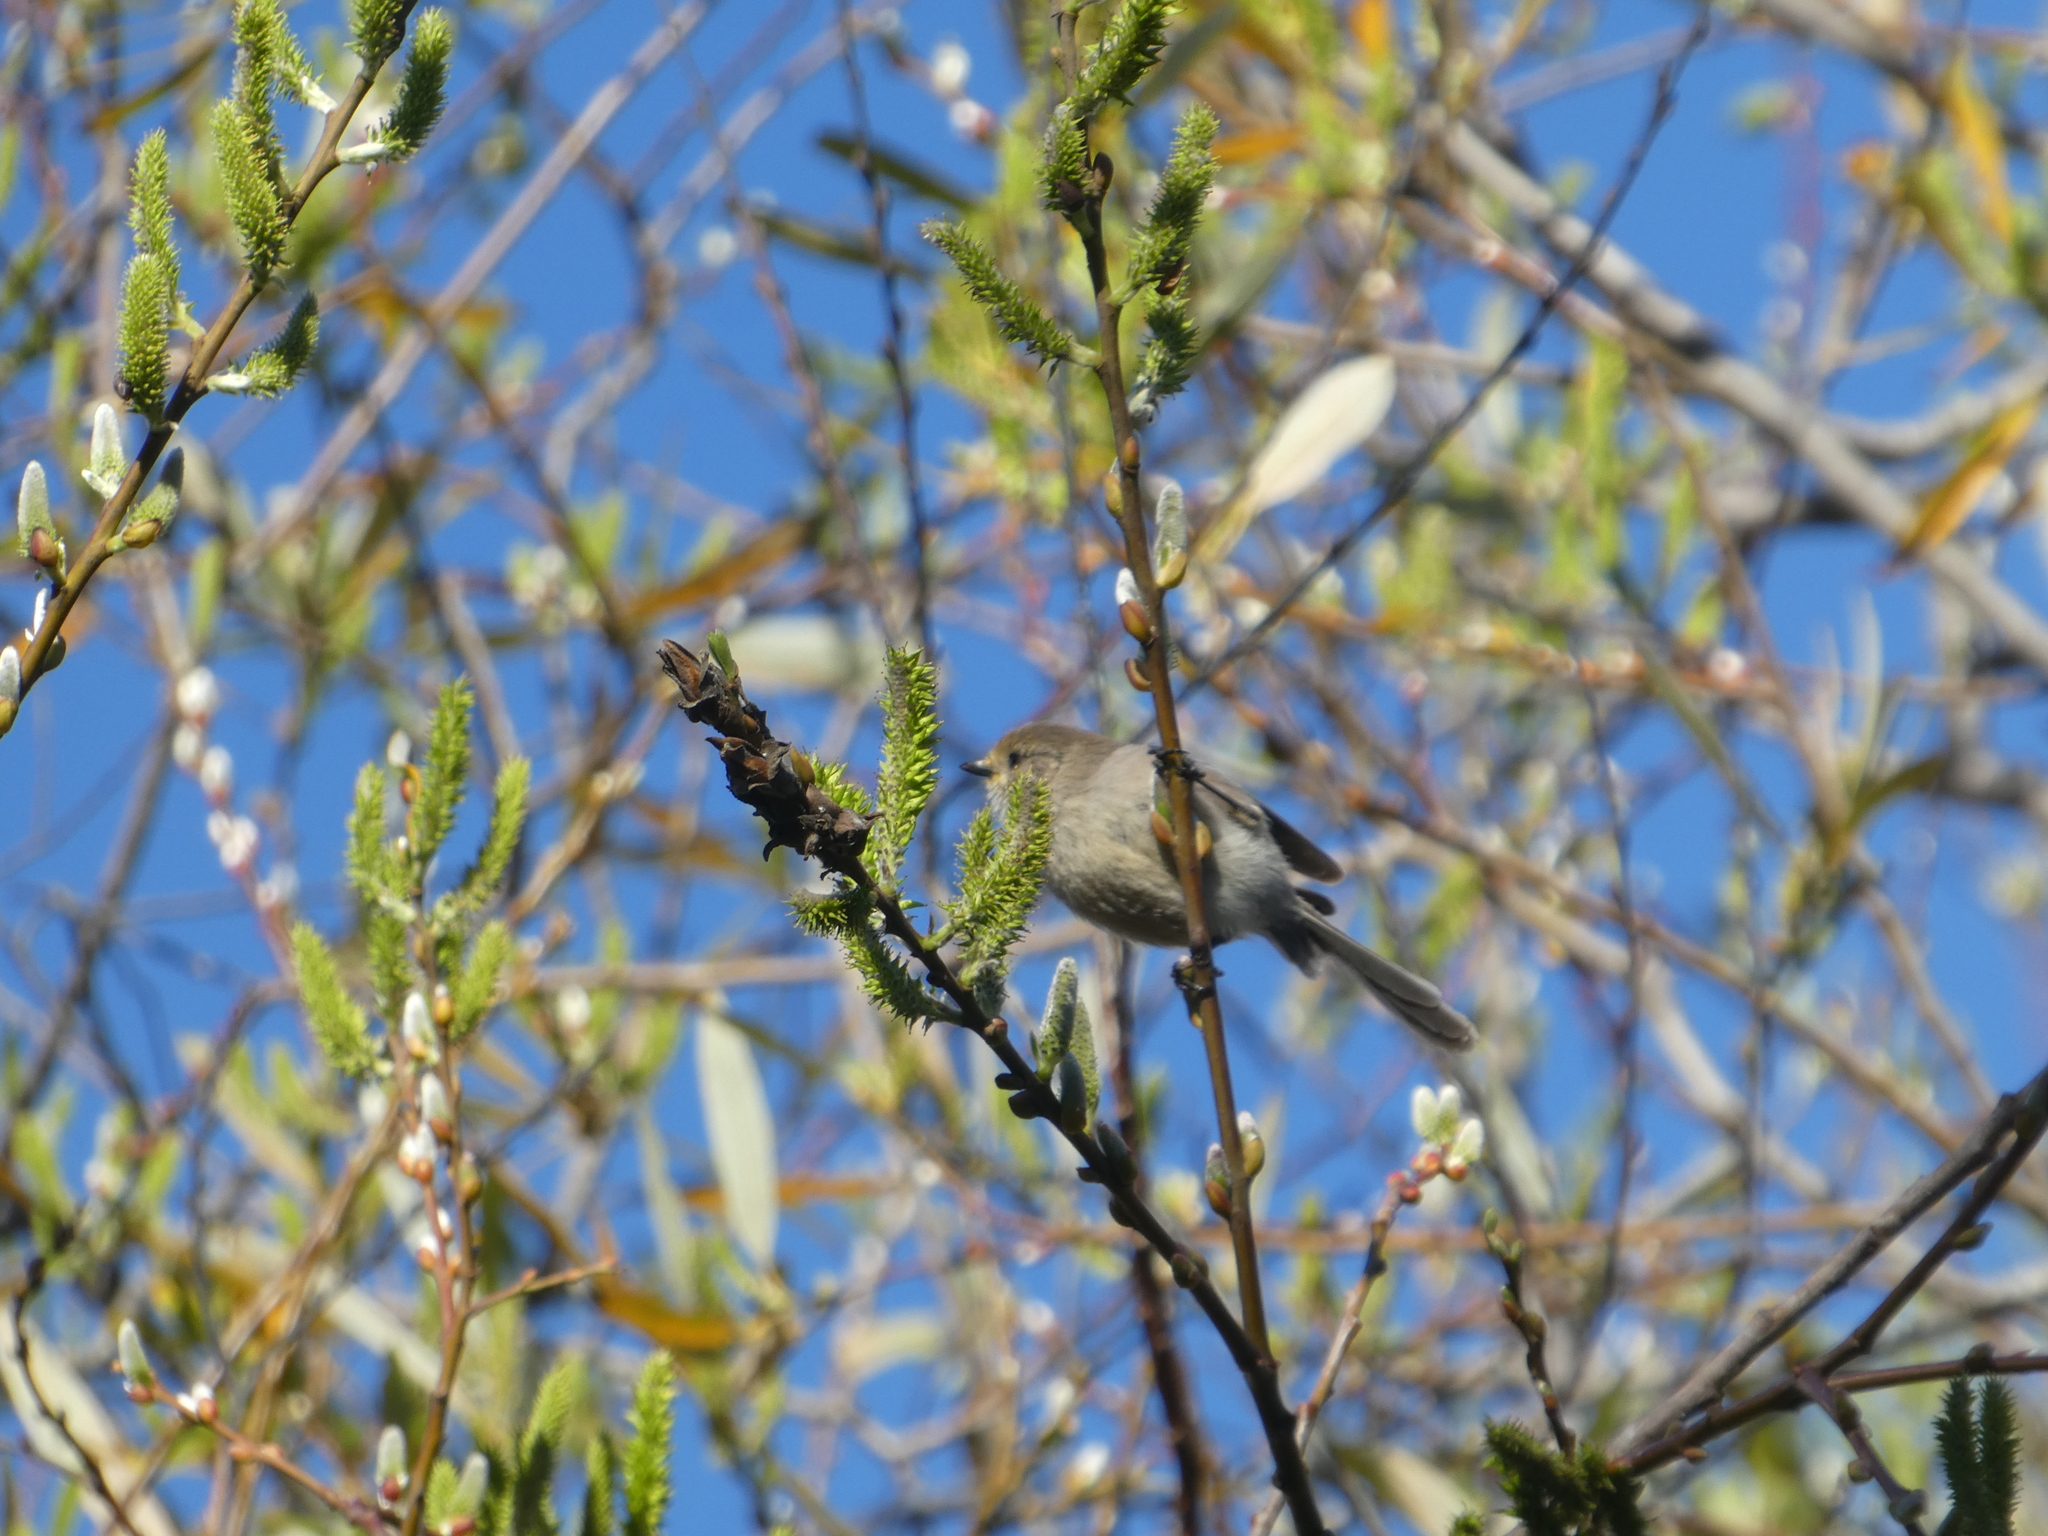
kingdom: Animalia
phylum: Chordata
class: Aves
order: Passeriformes
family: Aegithalidae
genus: Psaltriparus
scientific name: Psaltriparus minimus
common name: American bushtit
